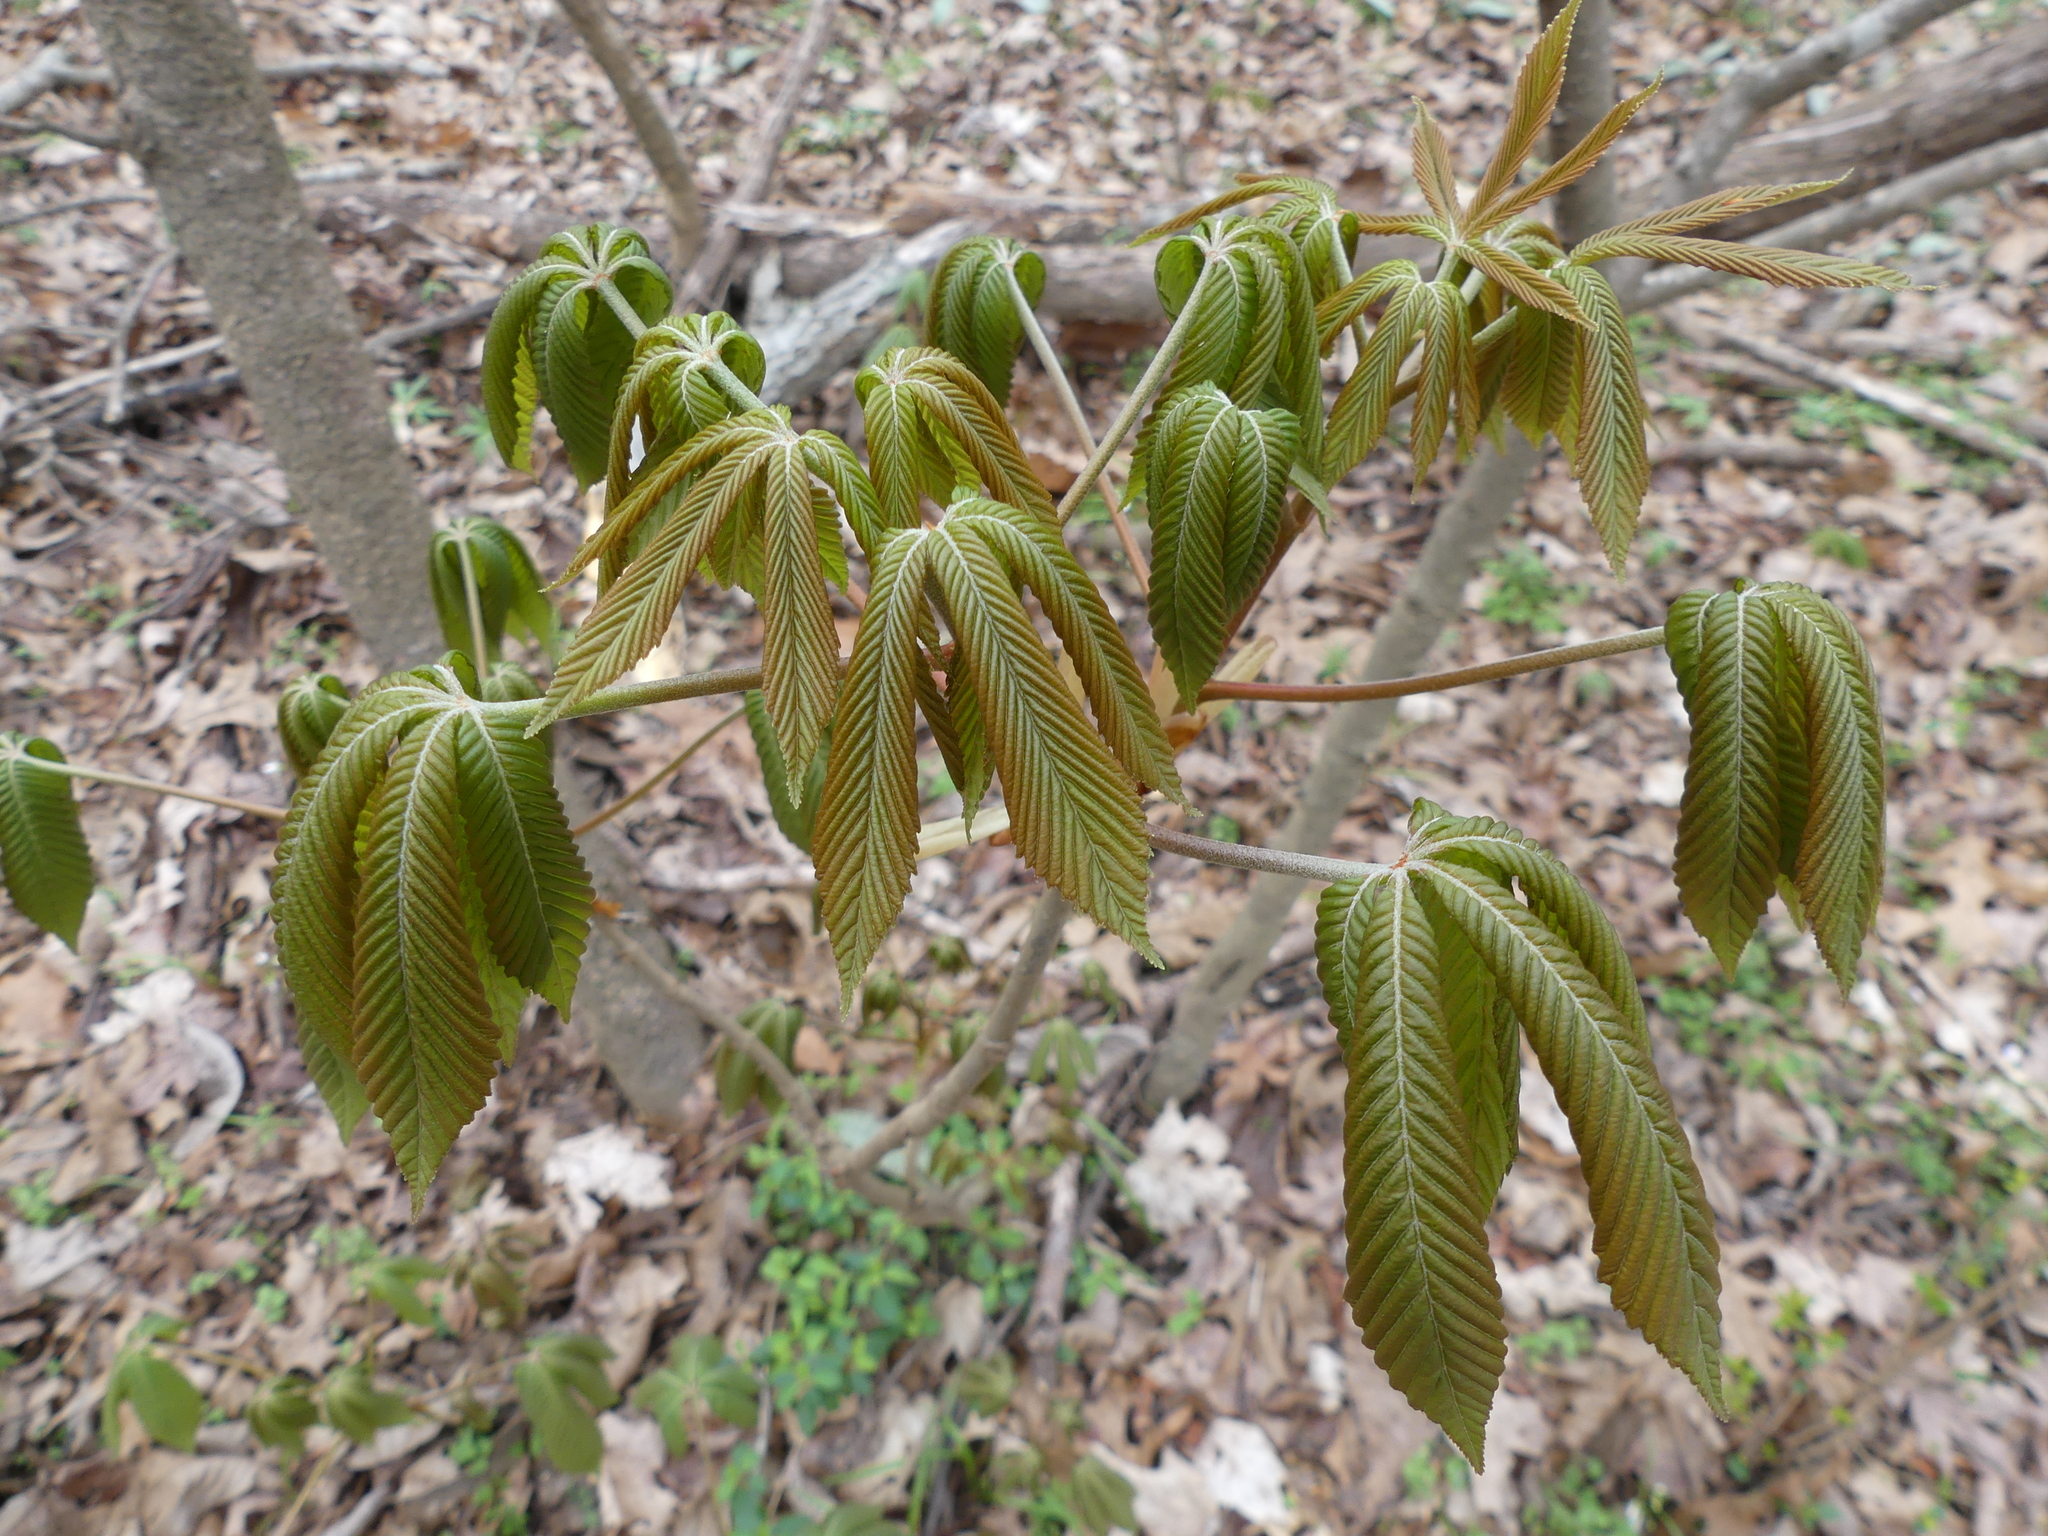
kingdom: Plantae
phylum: Tracheophyta
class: Magnoliopsida
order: Sapindales
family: Sapindaceae
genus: Aesculus
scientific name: Aesculus sylvatica
